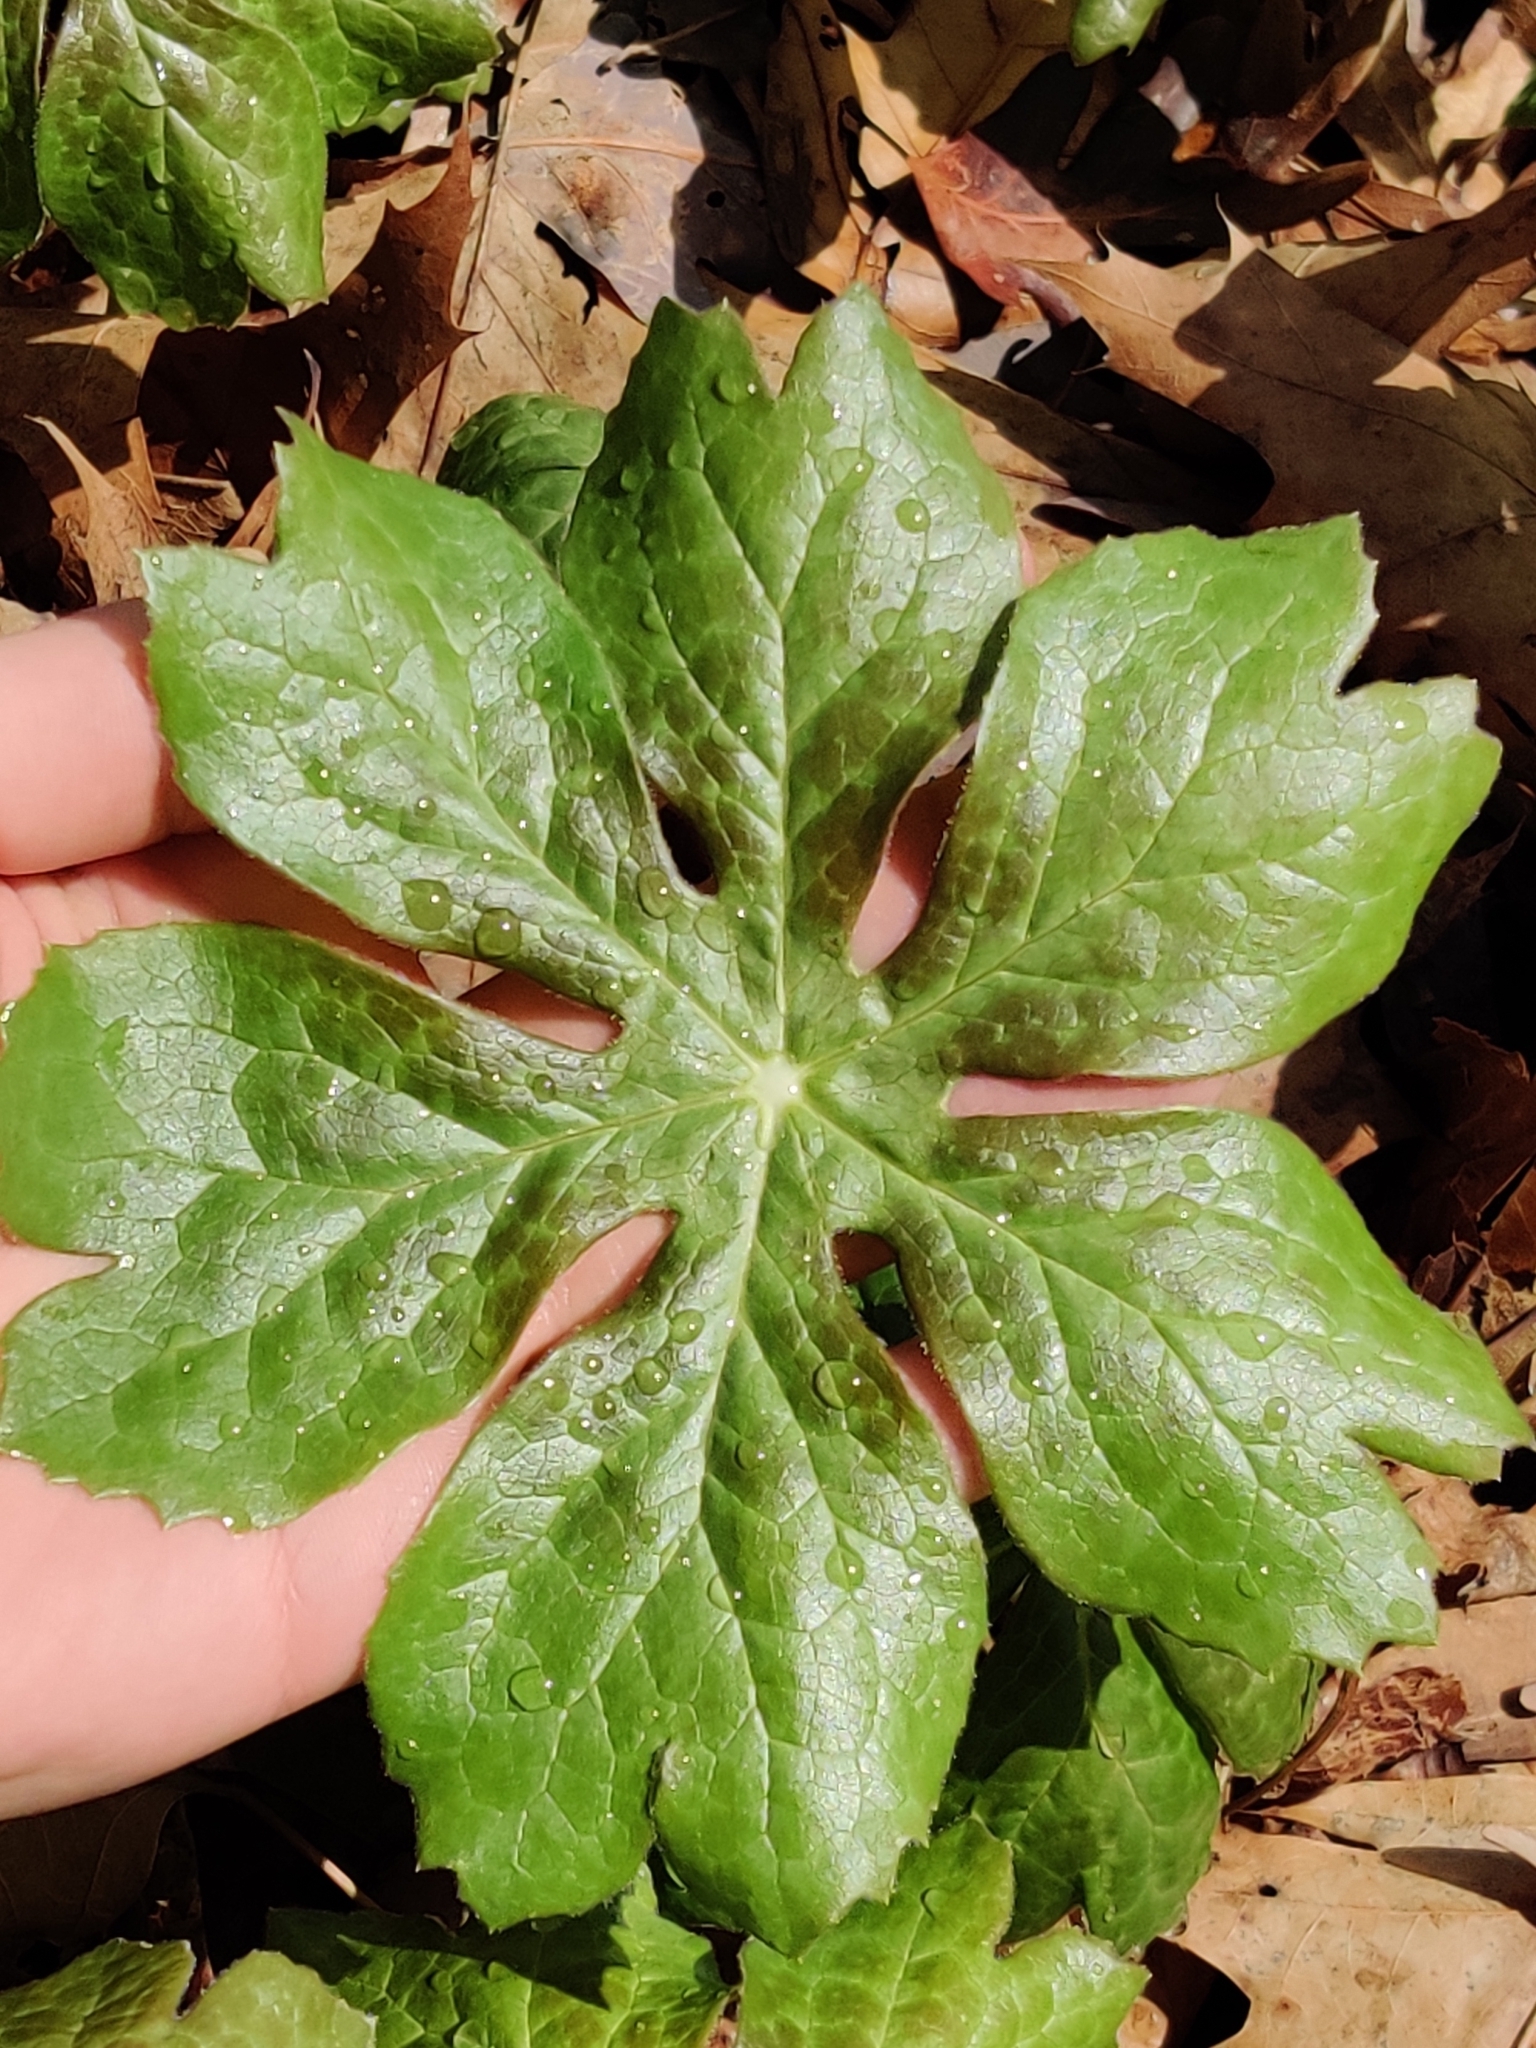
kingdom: Plantae
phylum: Tracheophyta
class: Magnoliopsida
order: Ranunculales
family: Berberidaceae
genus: Podophyllum
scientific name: Podophyllum peltatum
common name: Wild mandrake
